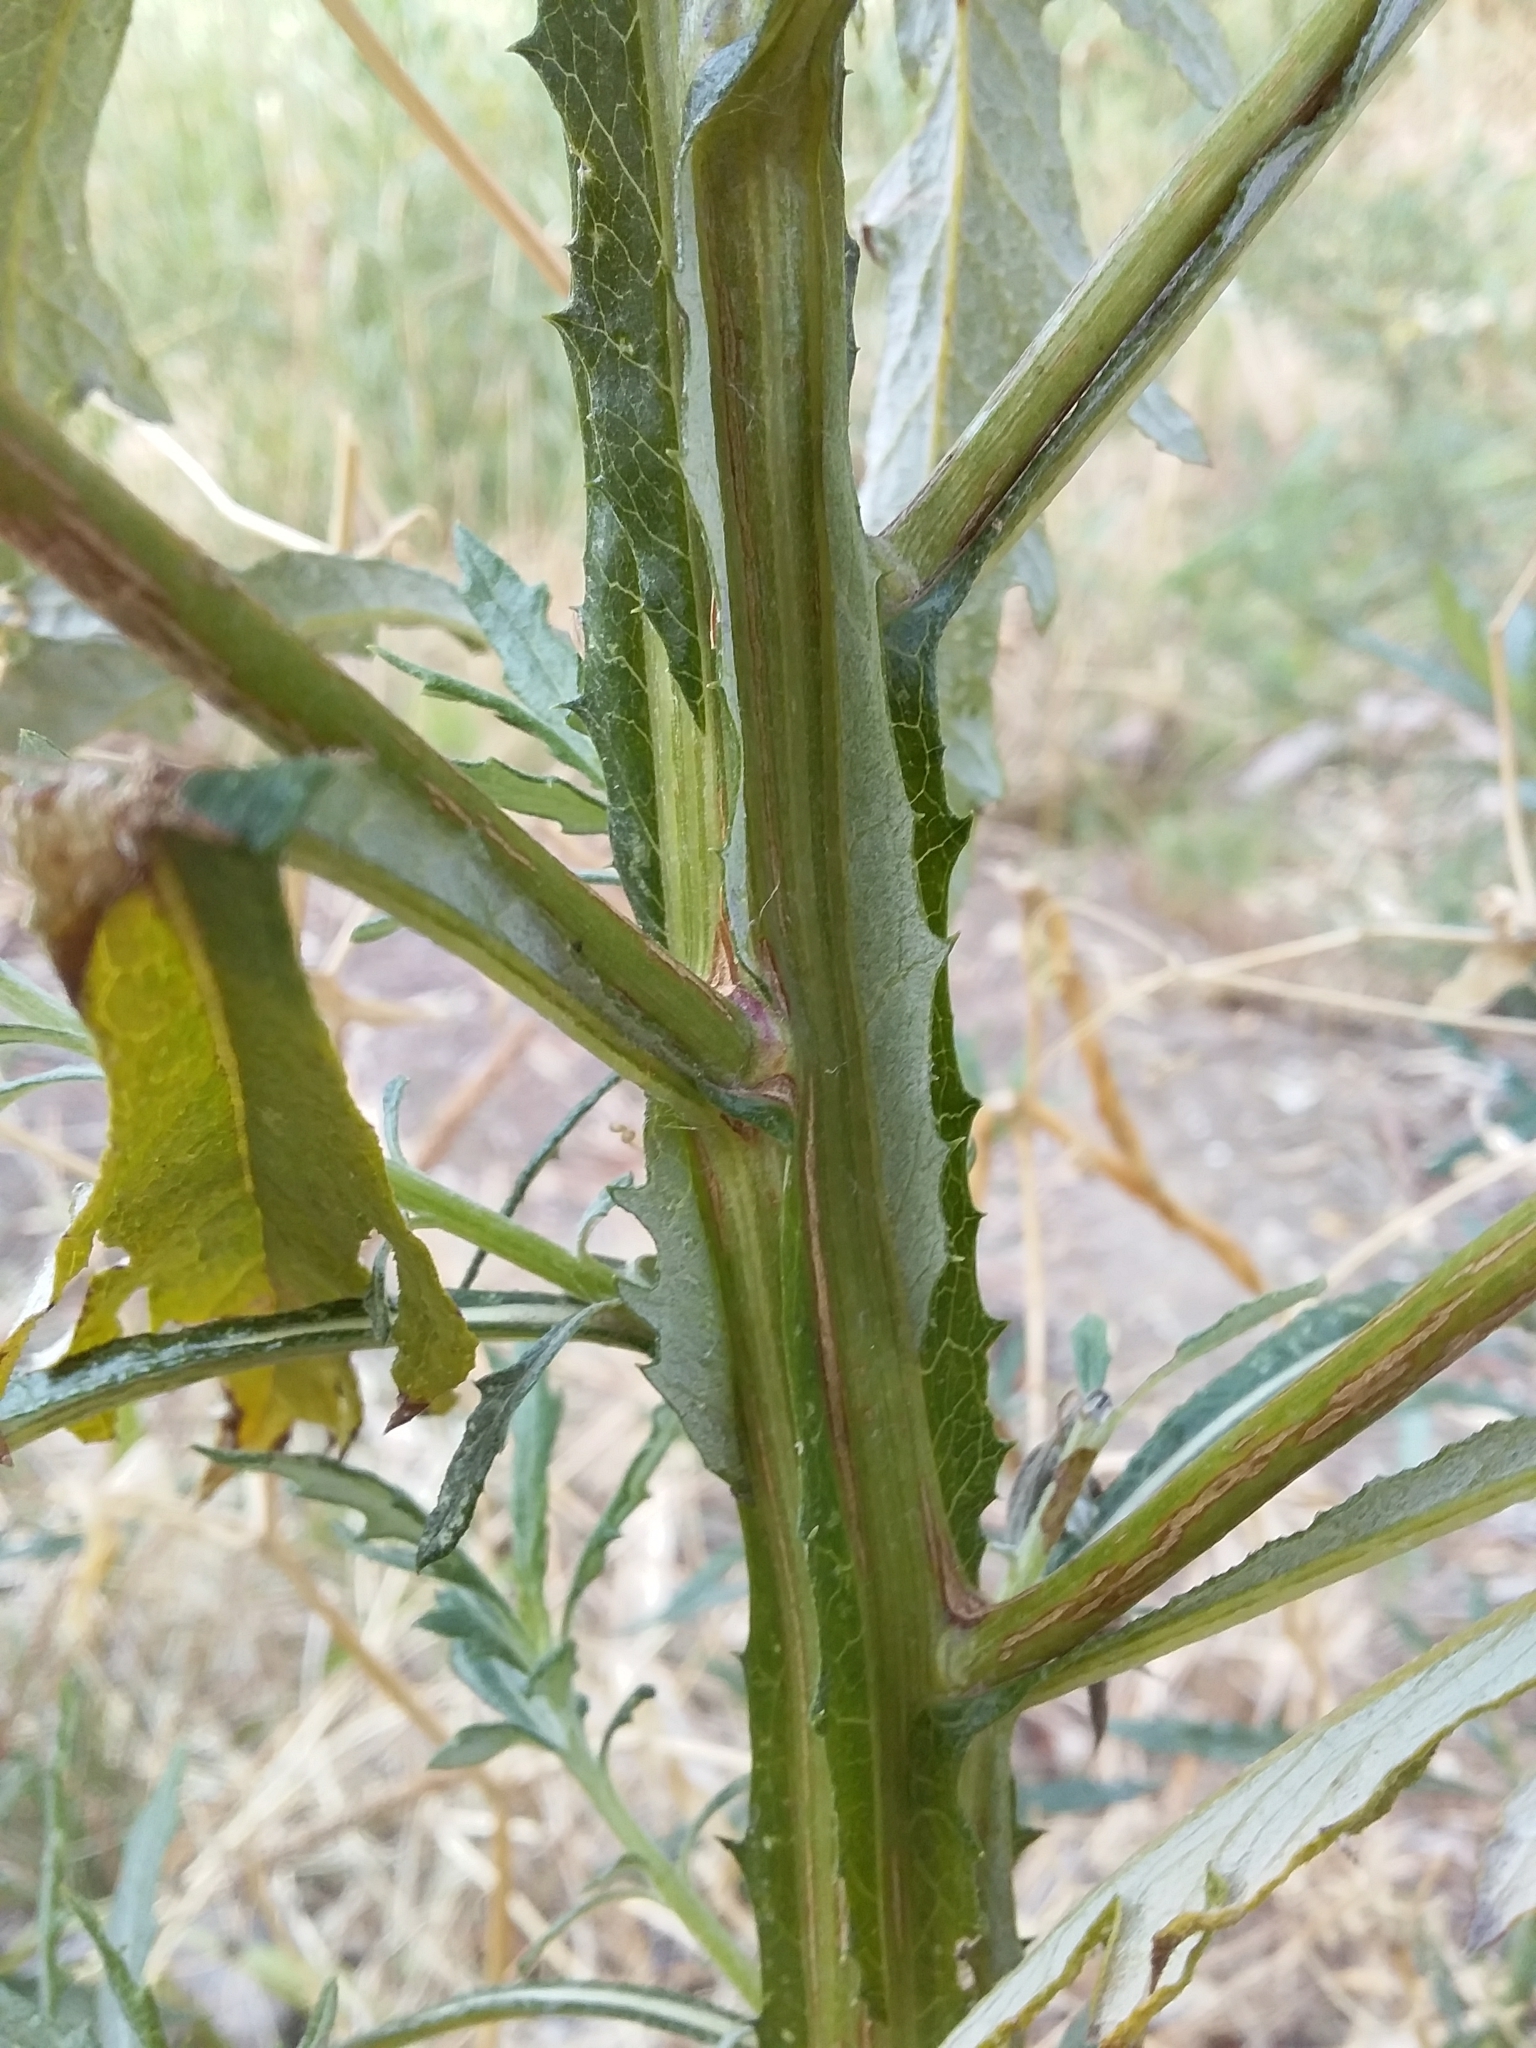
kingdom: Plantae
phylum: Tracheophyta
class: Magnoliopsida
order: Asterales
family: Asteraceae
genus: Senecio
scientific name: Senecio pterophorus
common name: Shoddy ragwort
